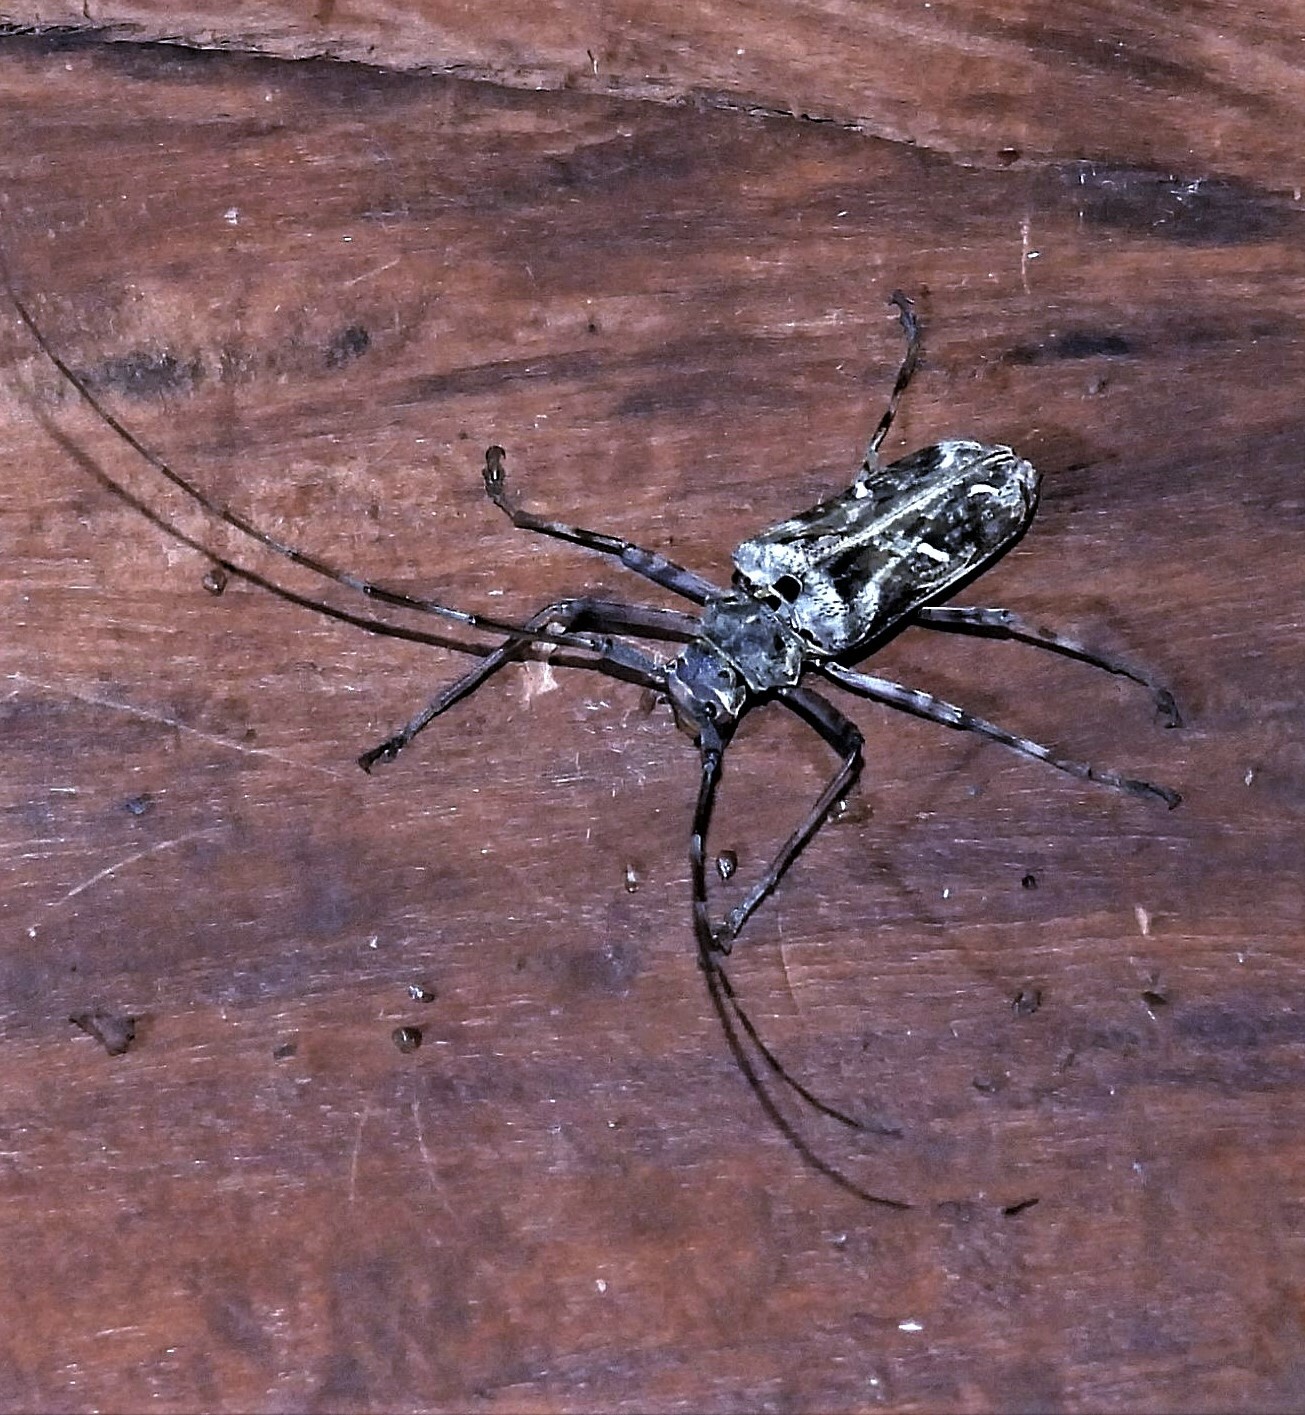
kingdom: Animalia
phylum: Arthropoda
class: Insecta
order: Coleoptera
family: Cerambycidae
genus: Macropophora
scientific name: Macropophora accentifer
